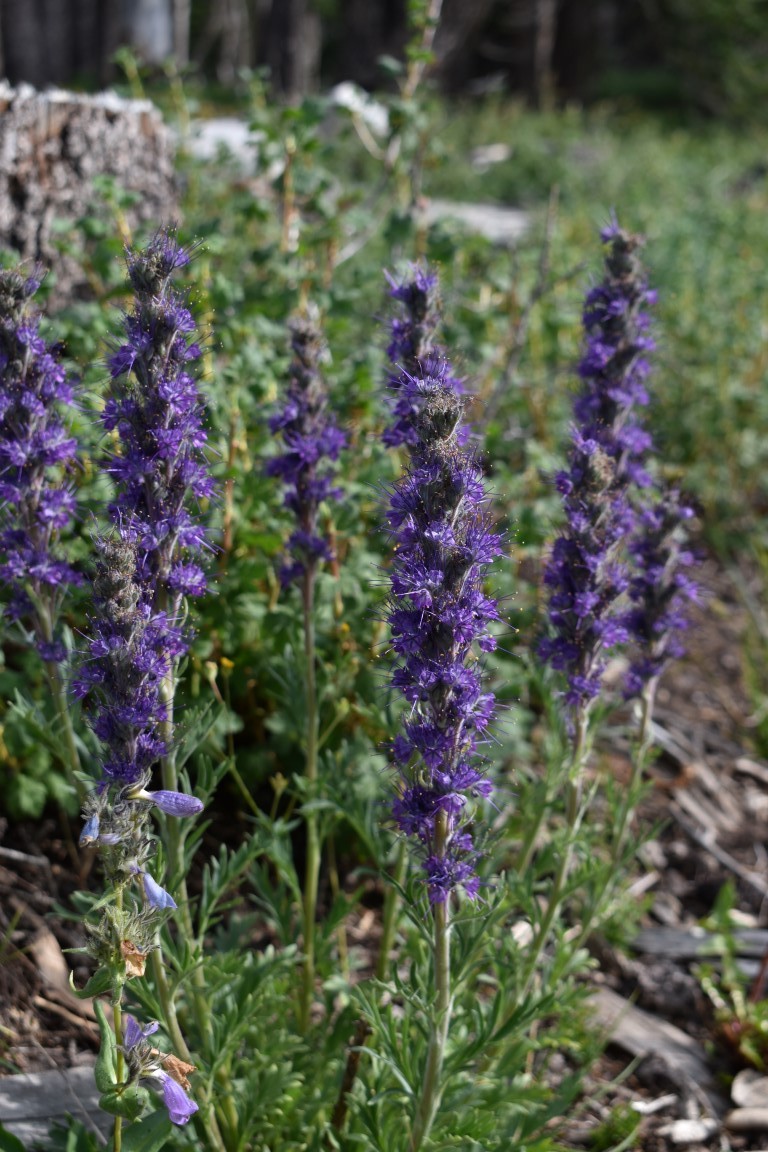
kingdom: Plantae
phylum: Tracheophyta
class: Magnoliopsida
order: Boraginales
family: Hydrophyllaceae
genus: Phacelia
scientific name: Phacelia sericea
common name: Silky phacelia
